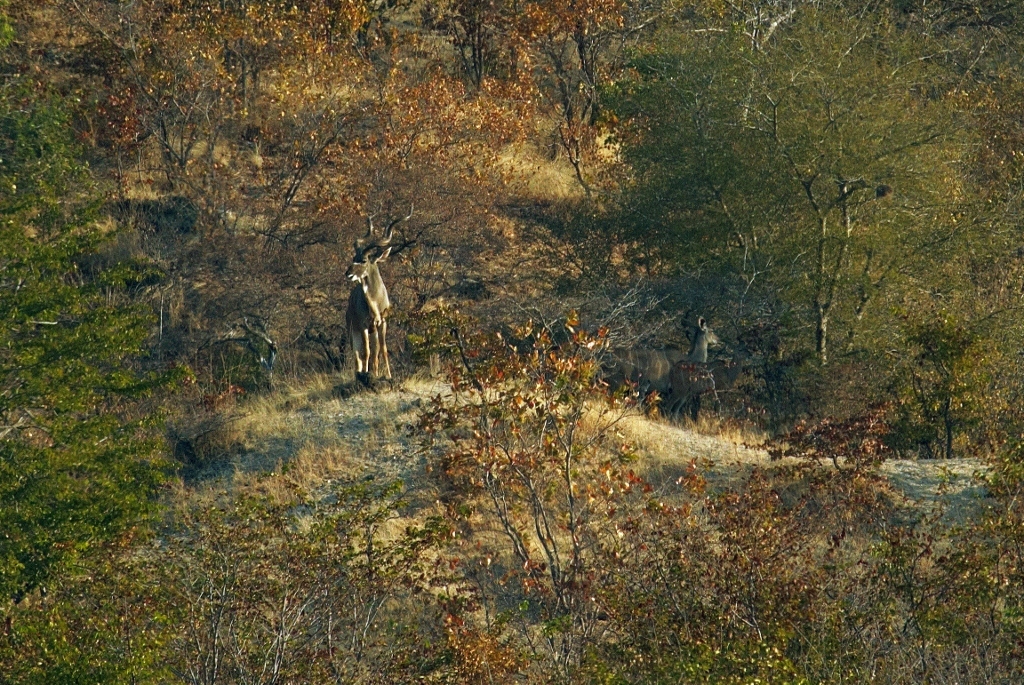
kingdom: Animalia
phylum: Chordata
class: Mammalia
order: Artiodactyla
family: Bovidae
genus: Tragelaphus
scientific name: Tragelaphus strepsiceros
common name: Greater kudu
